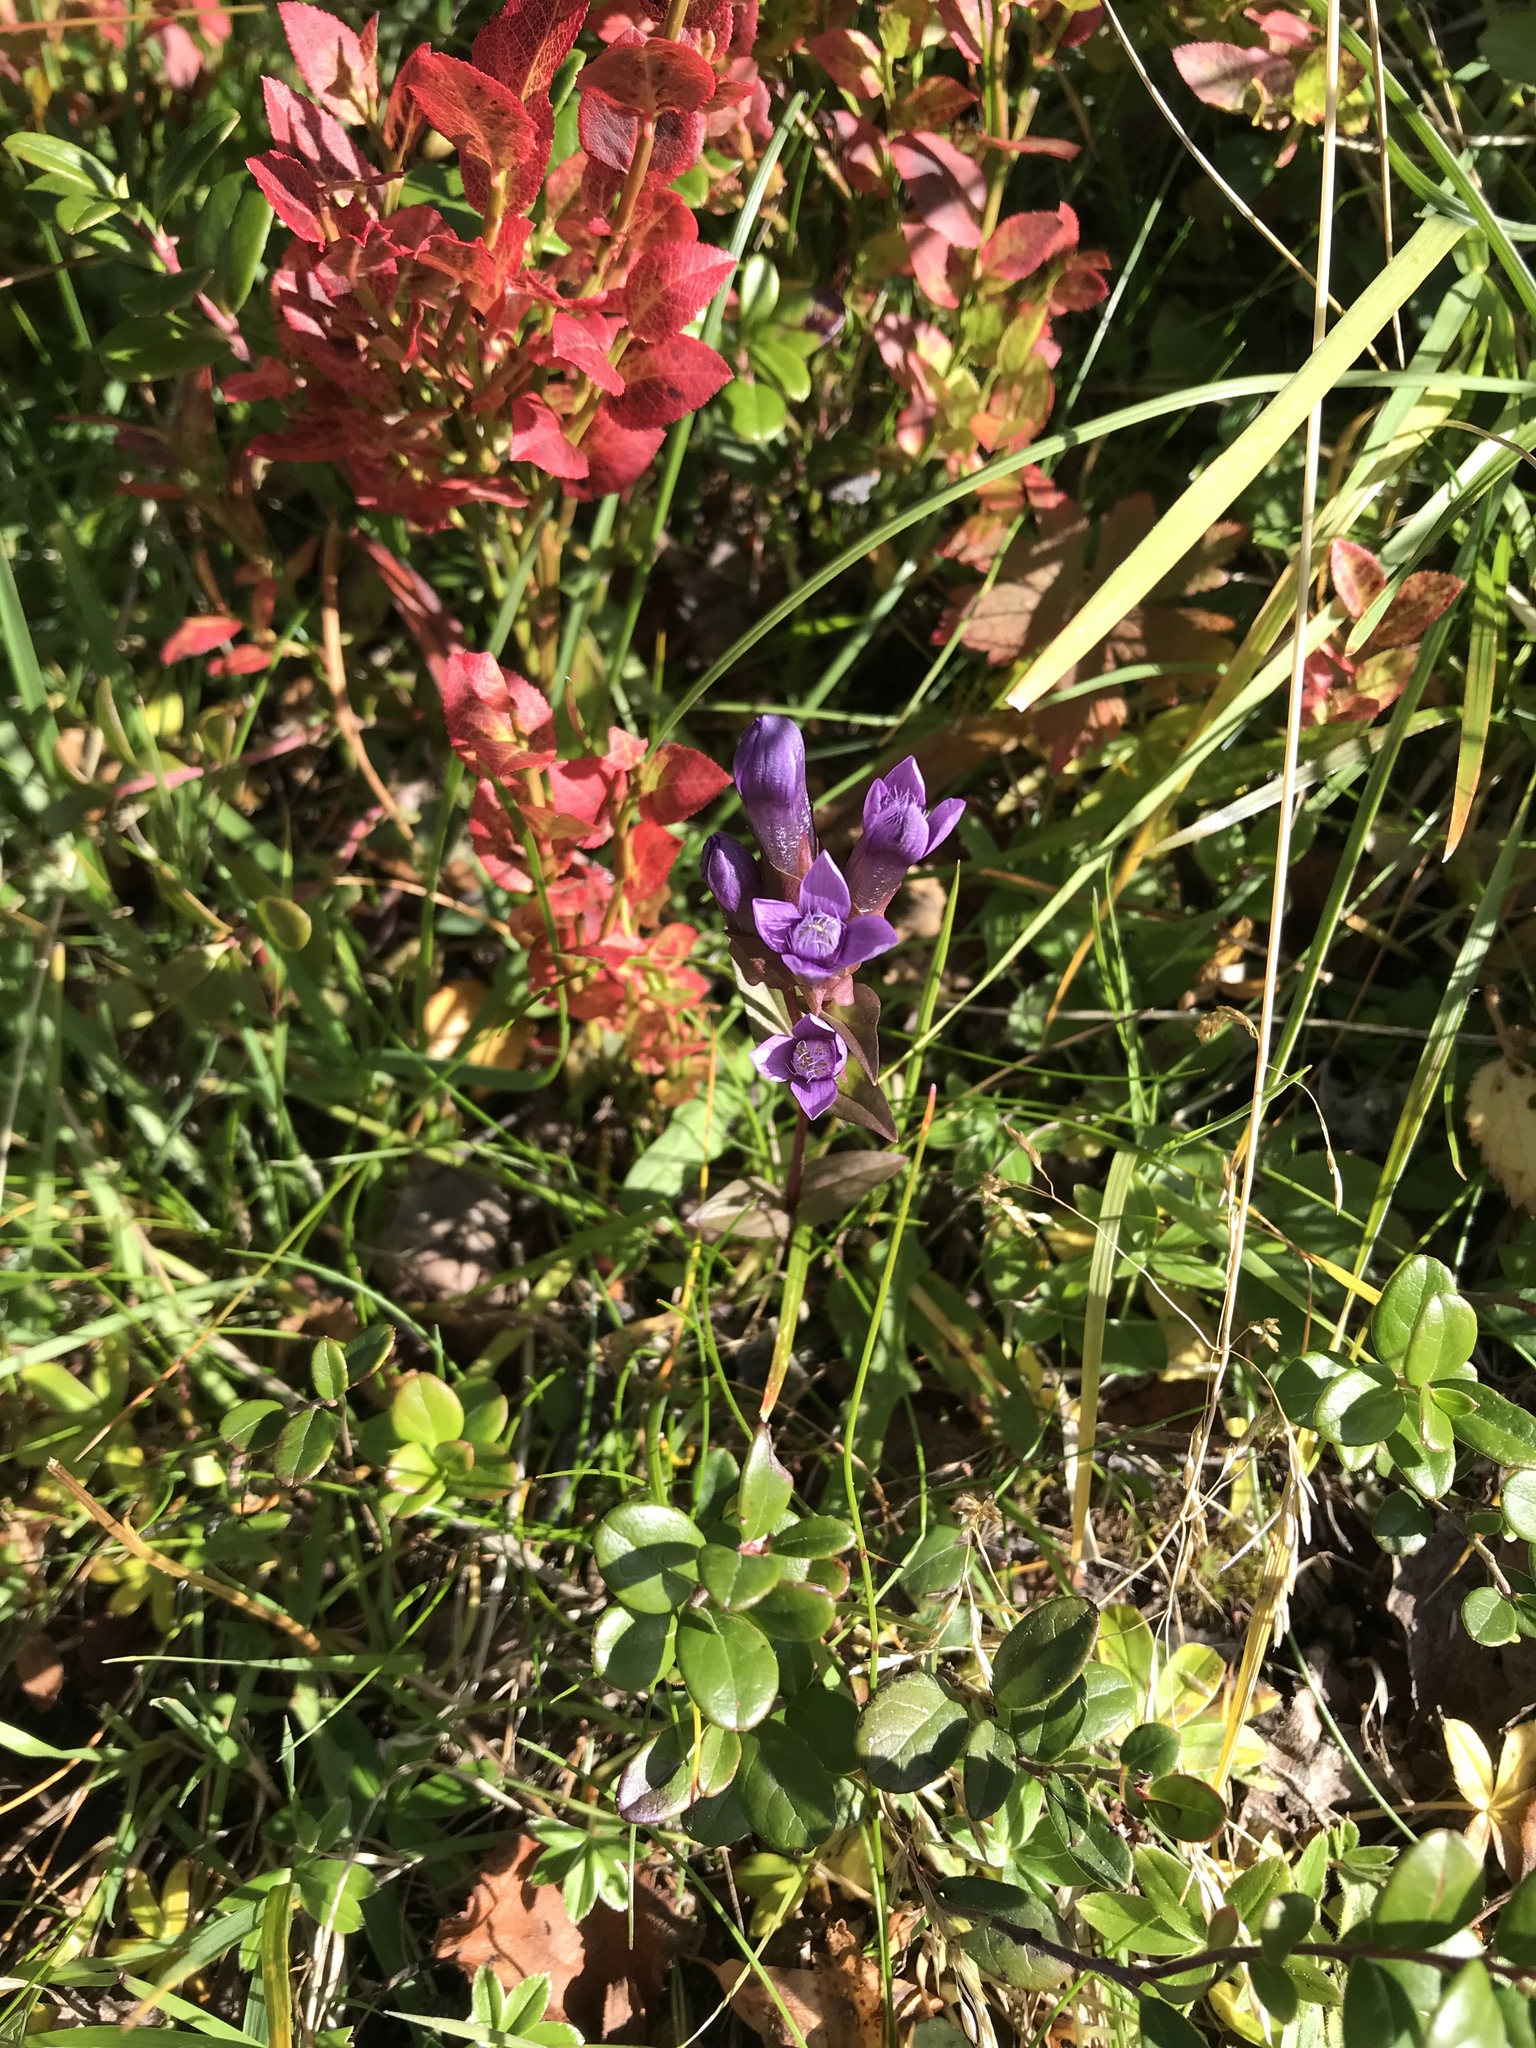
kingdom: Plantae
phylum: Tracheophyta
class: Magnoliopsida
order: Gentianales
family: Gentianaceae
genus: Gentianella
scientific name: Gentianella campestris
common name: Field gentian
